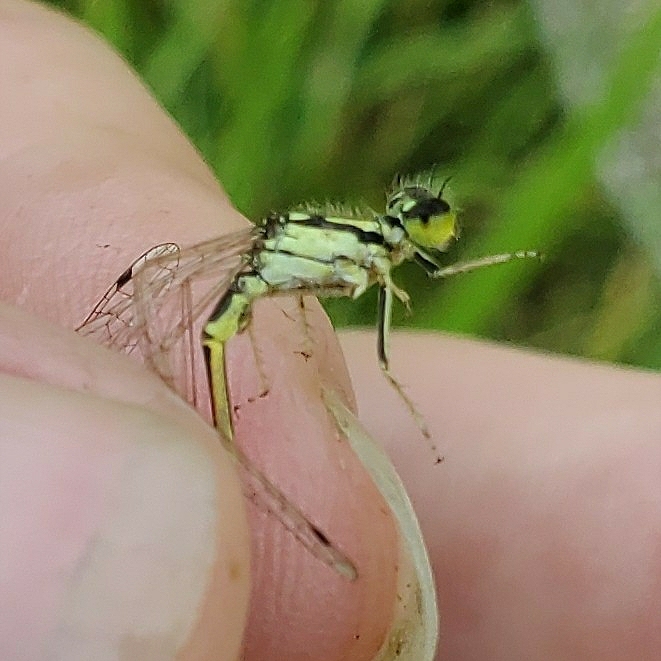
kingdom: Animalia
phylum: Arthropoda
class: Insecta
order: Odonata
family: Coenagrionidae
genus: Ischnura
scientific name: Ischnura posita
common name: Fragile forktail
